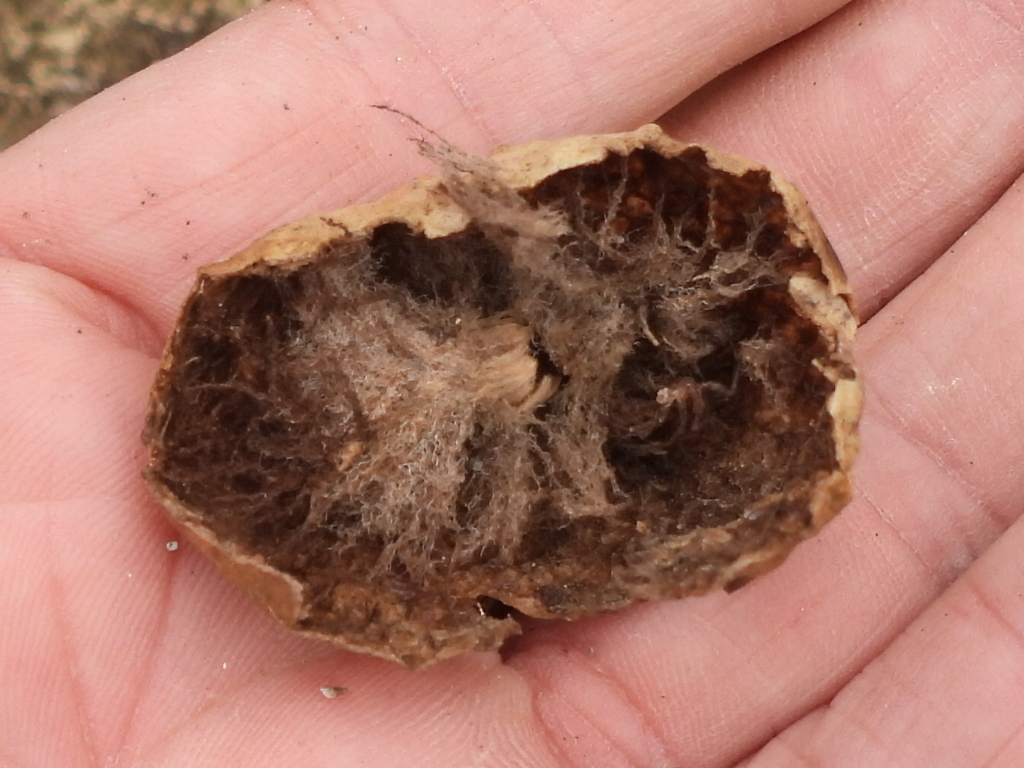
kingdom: Animalia
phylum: Arthropoda
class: Insecta
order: Hymenoptera
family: Cynipidae
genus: Amphibolips
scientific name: Amphibolips
